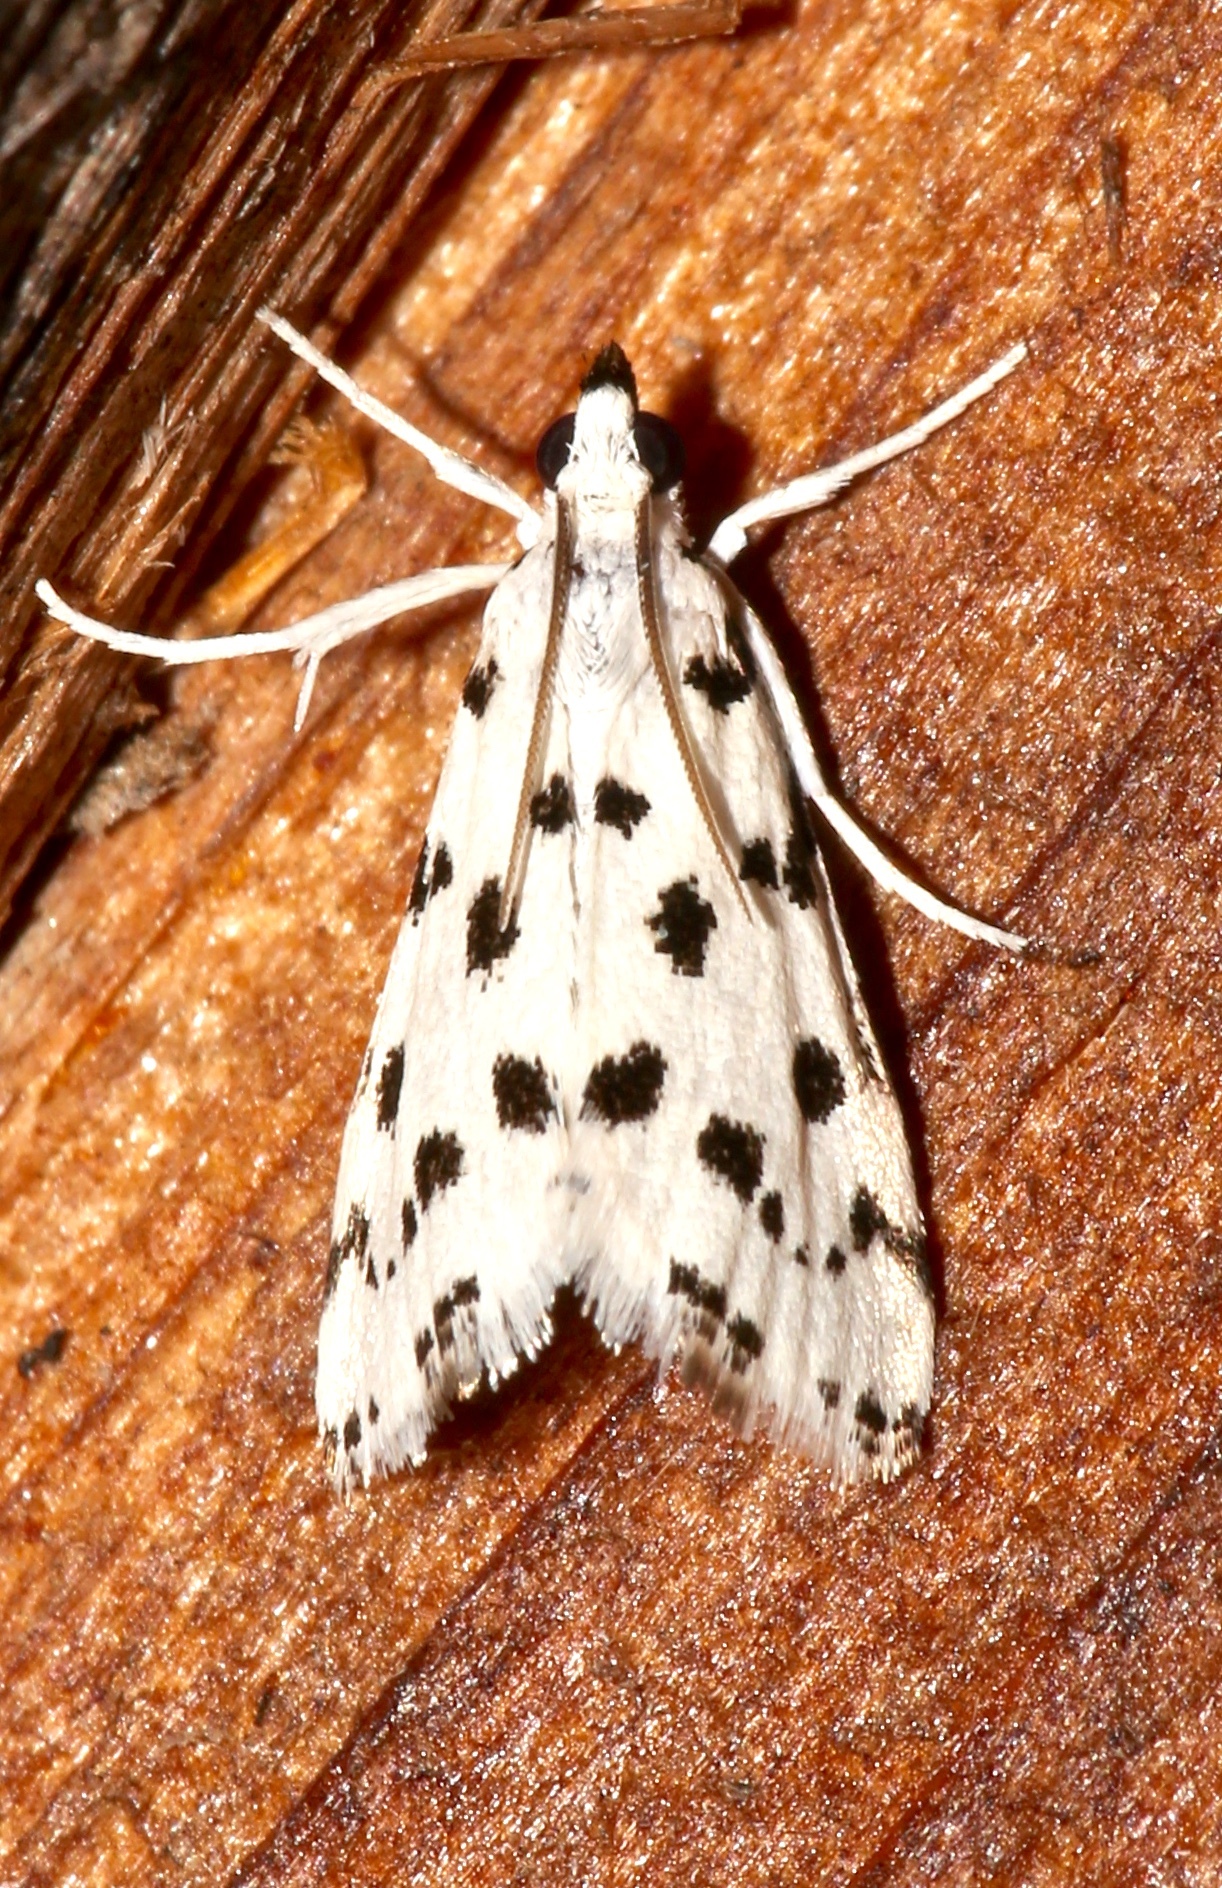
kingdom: Animalia
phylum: Arthropoda
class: Insecta
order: Lepidoptera
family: Crambidae
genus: Eustixia
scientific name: Eustixia pupula
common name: American cabbage pearl
